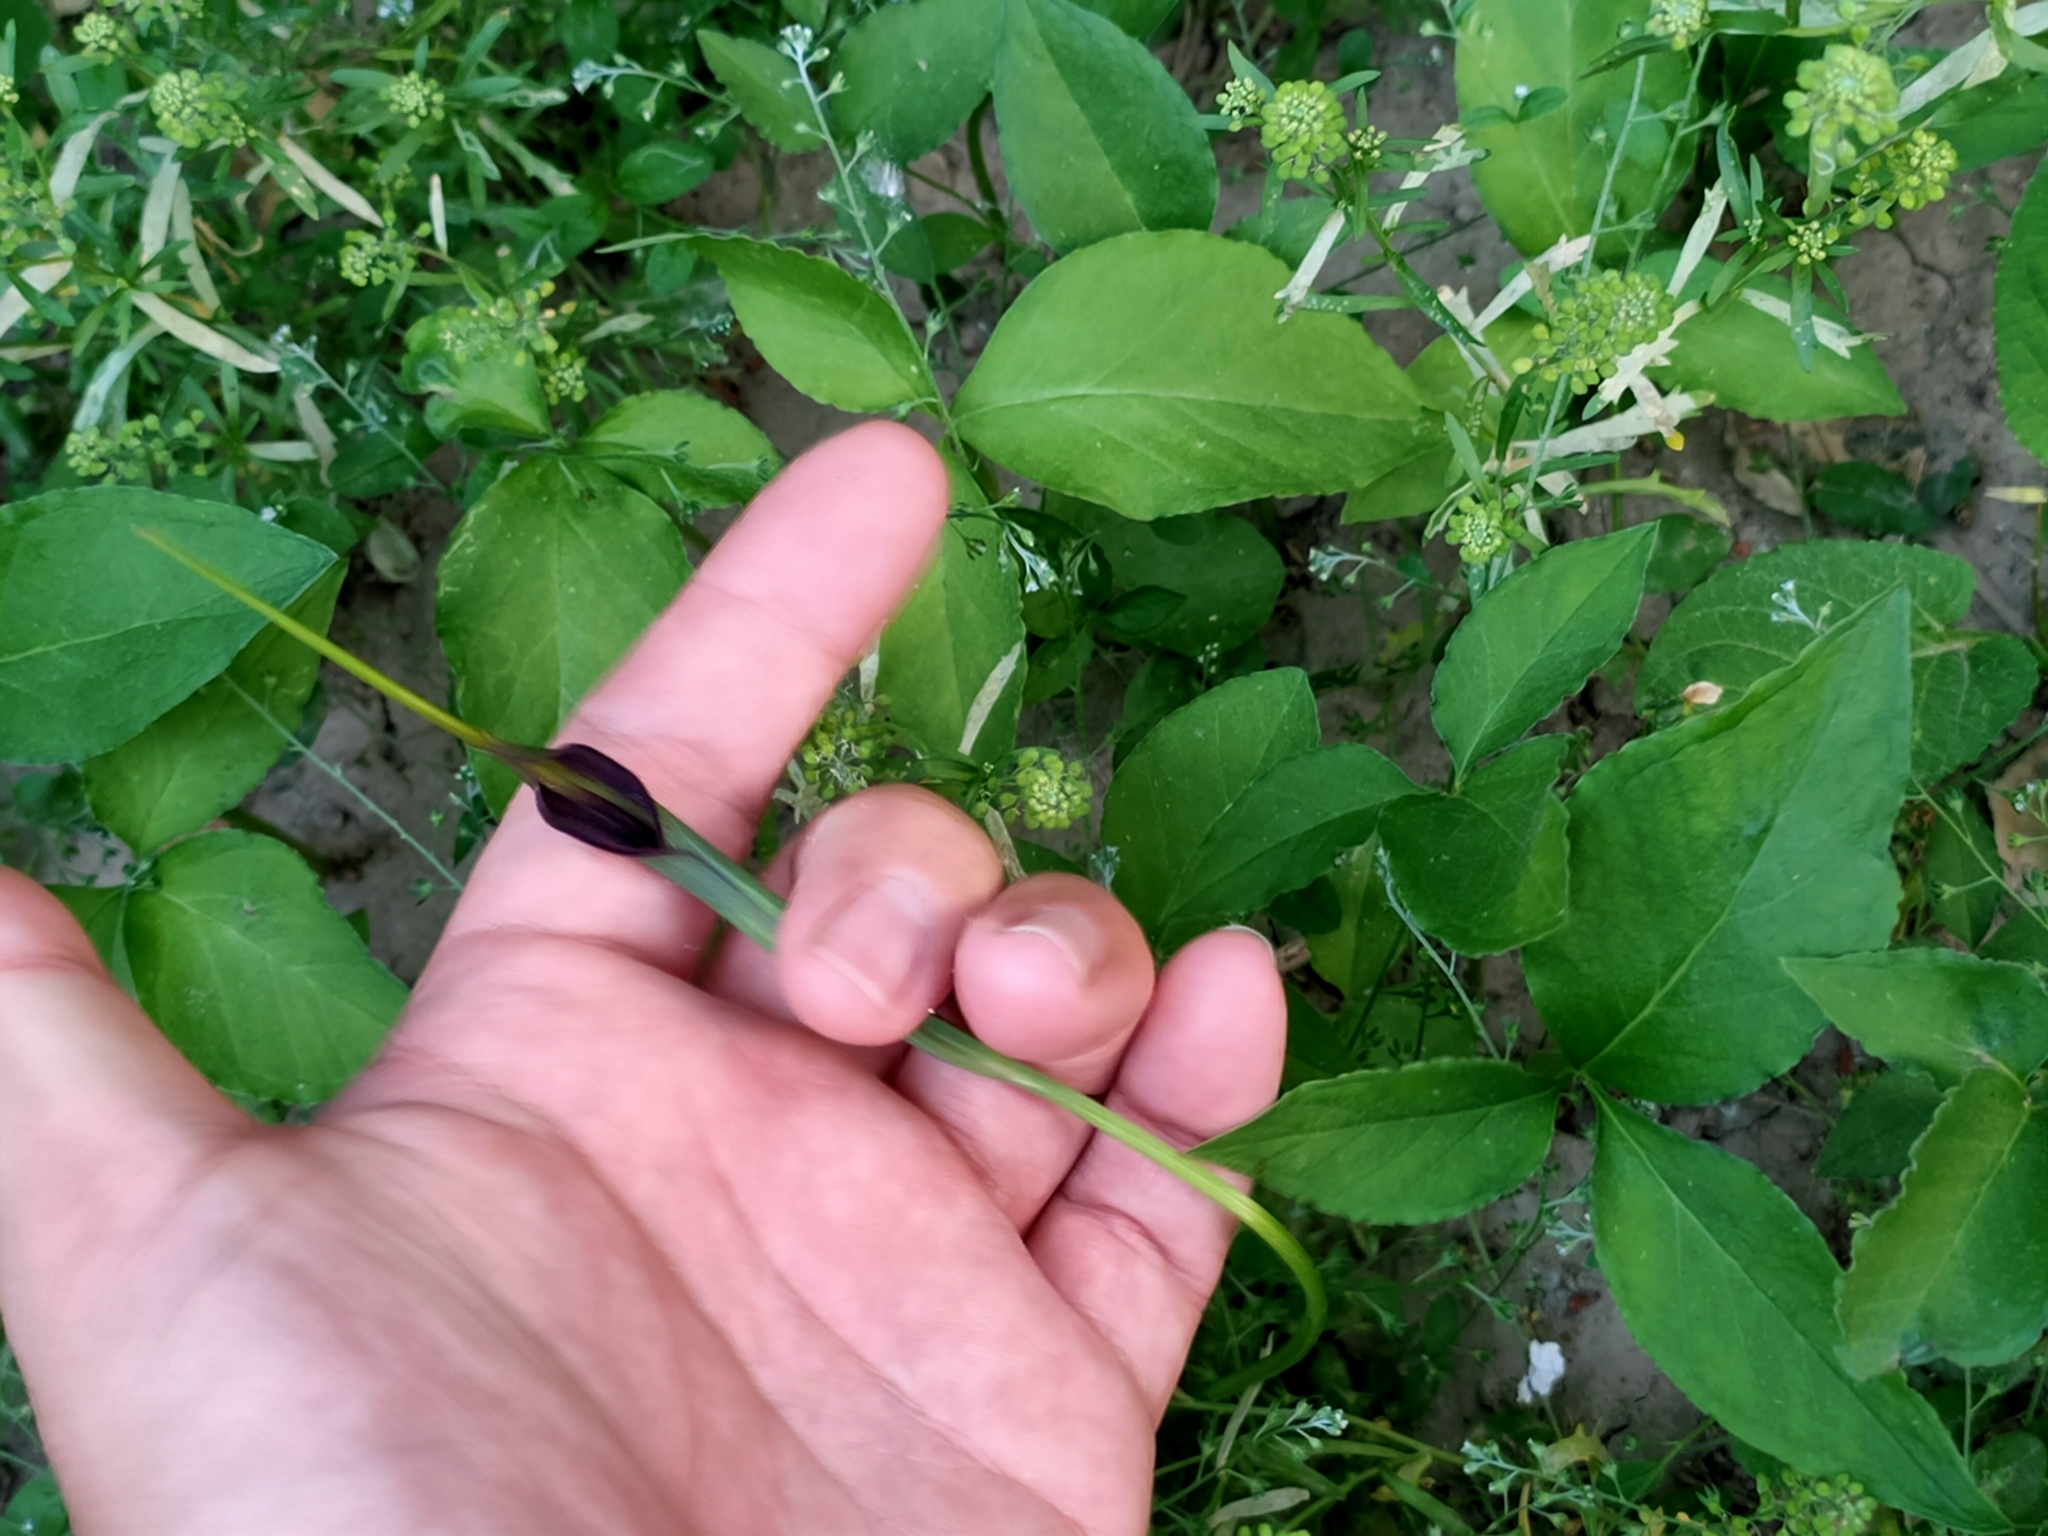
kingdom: Plantae
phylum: Tracheophyta
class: Liliopsida
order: Alismatales
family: Araceae
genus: Pinellia
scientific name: Pinellia ternata
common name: Pinellia
